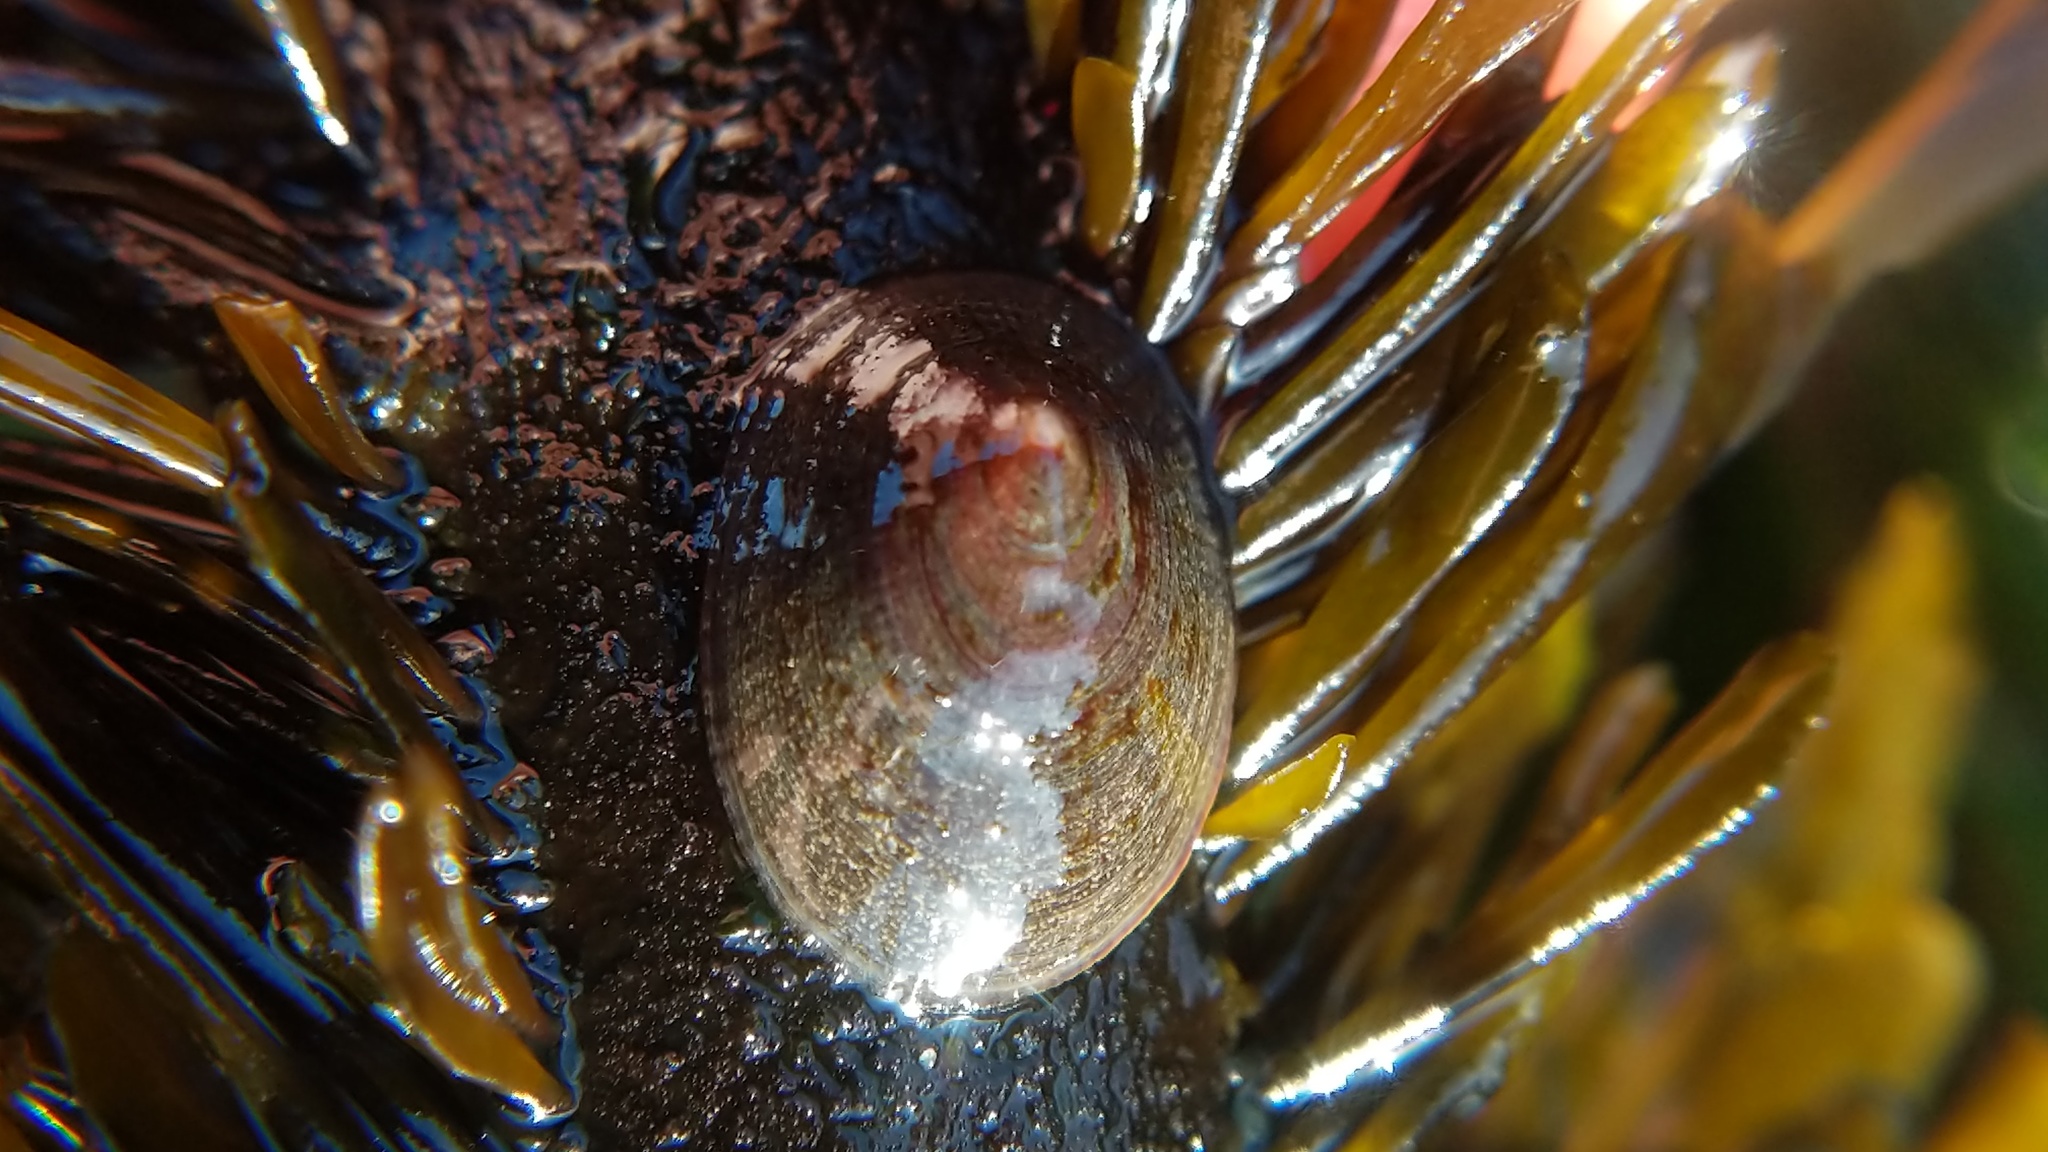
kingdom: Animalia
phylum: Mollusca
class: Gastropoda
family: Lottiidae
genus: Discurria
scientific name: Discurria insessa
